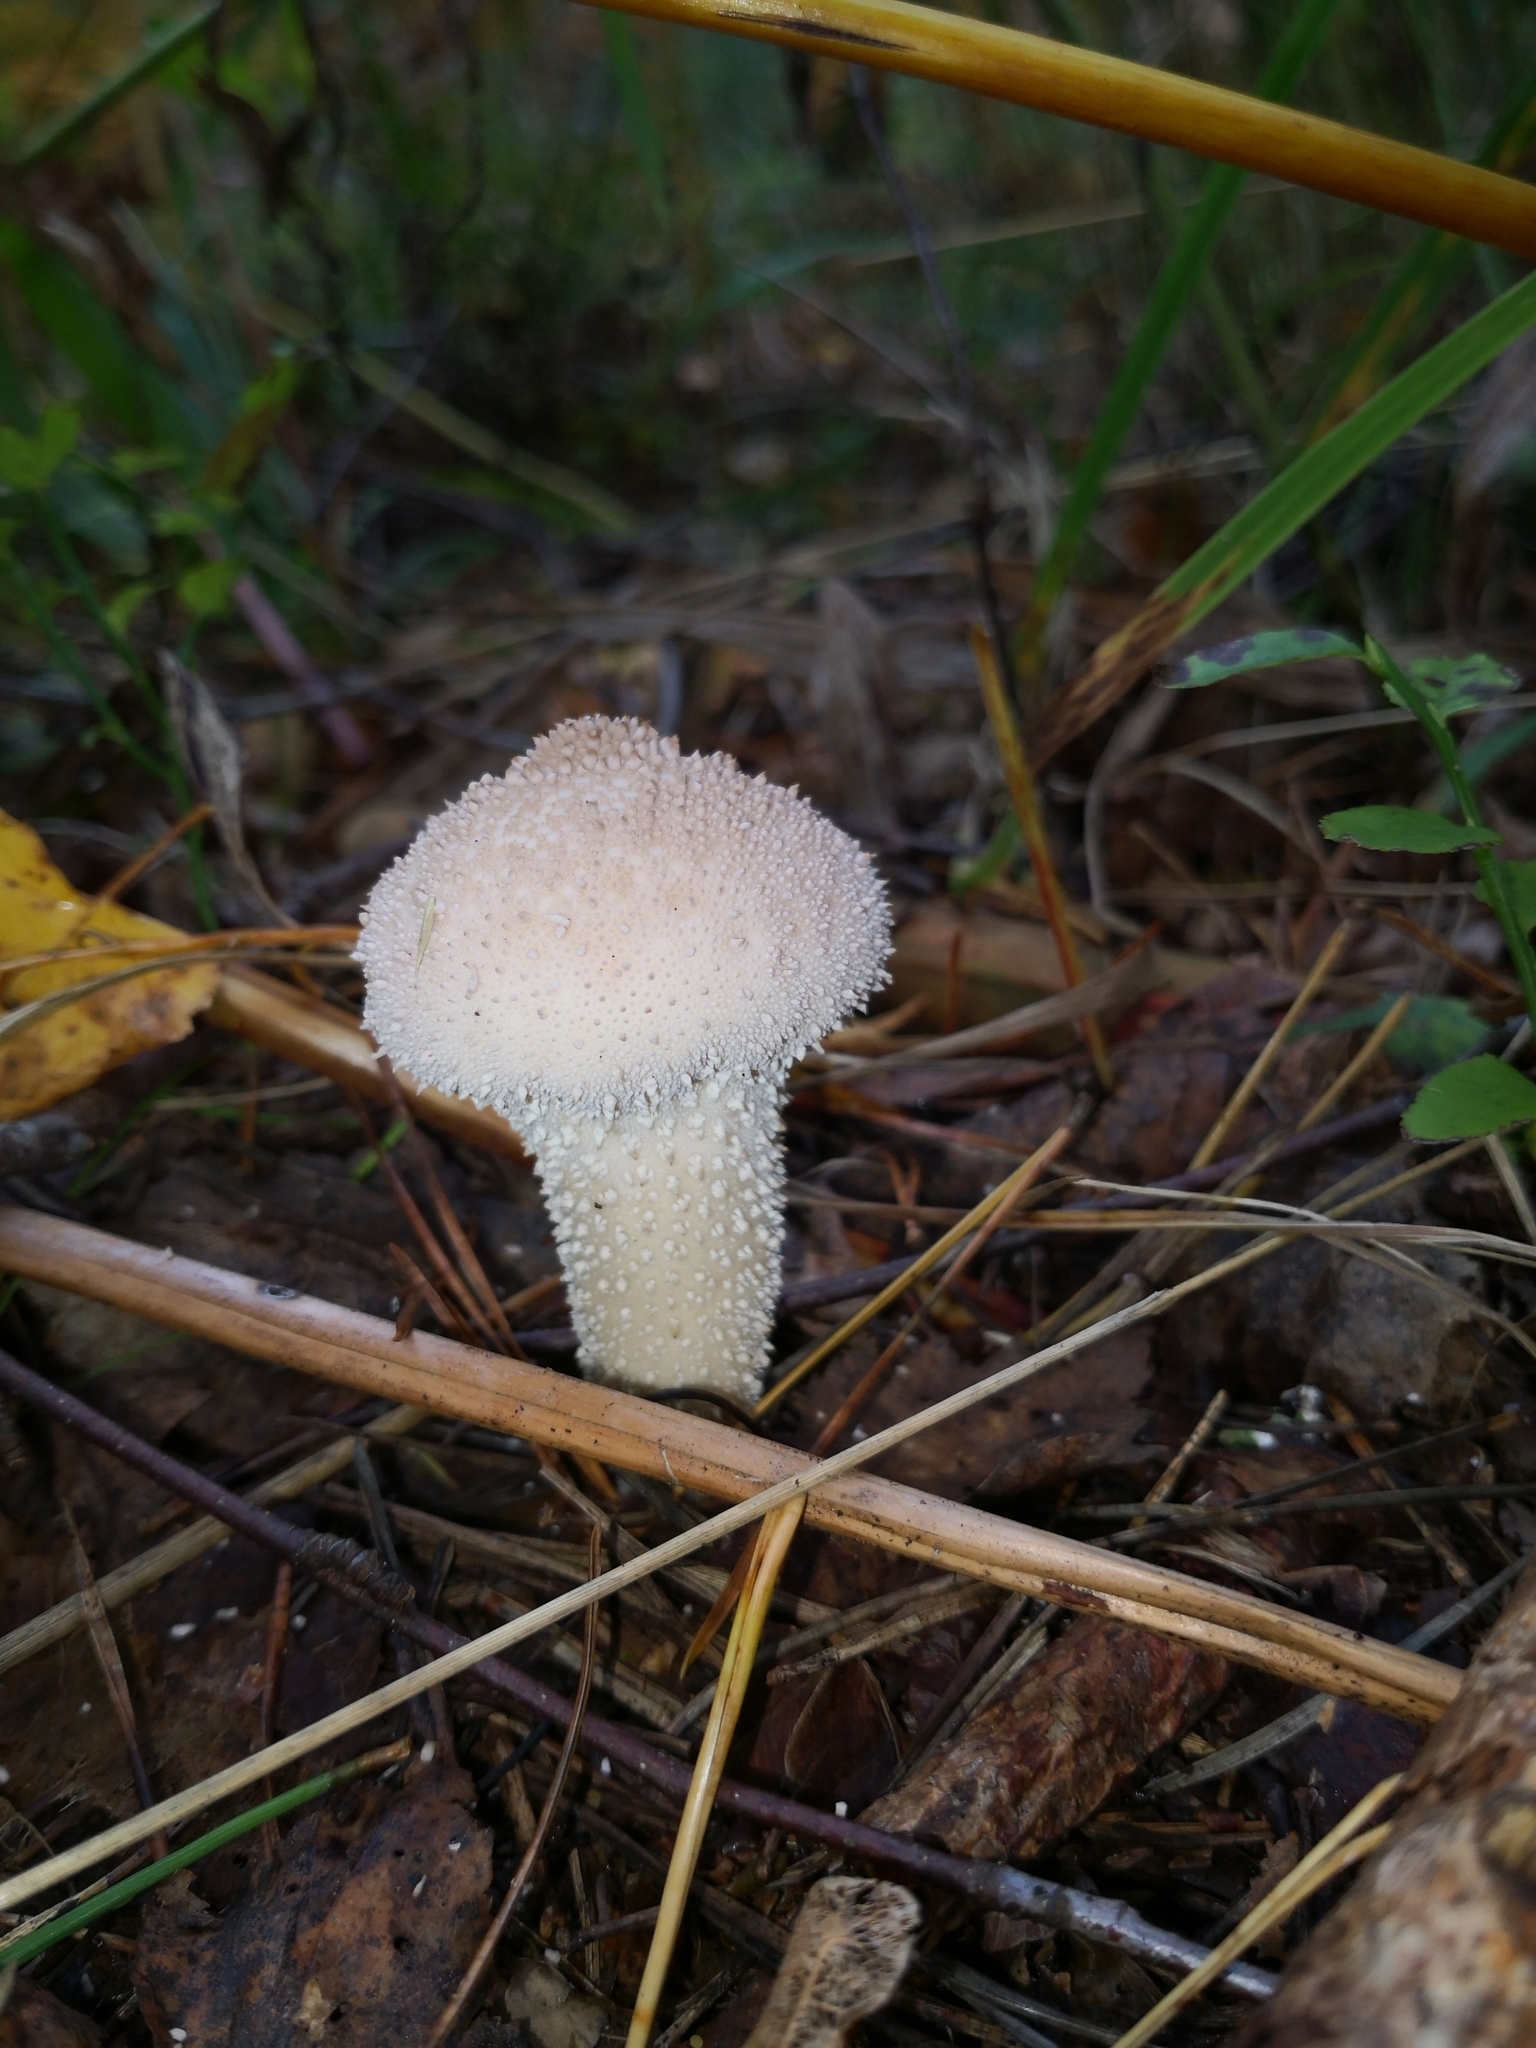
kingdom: Fungi
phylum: Basidiomycota
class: Agaricomycetes
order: Agaricales
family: Lycoperdaceae
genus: Lycoperdon
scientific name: Lycoperdon perlatum
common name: Common puffball
